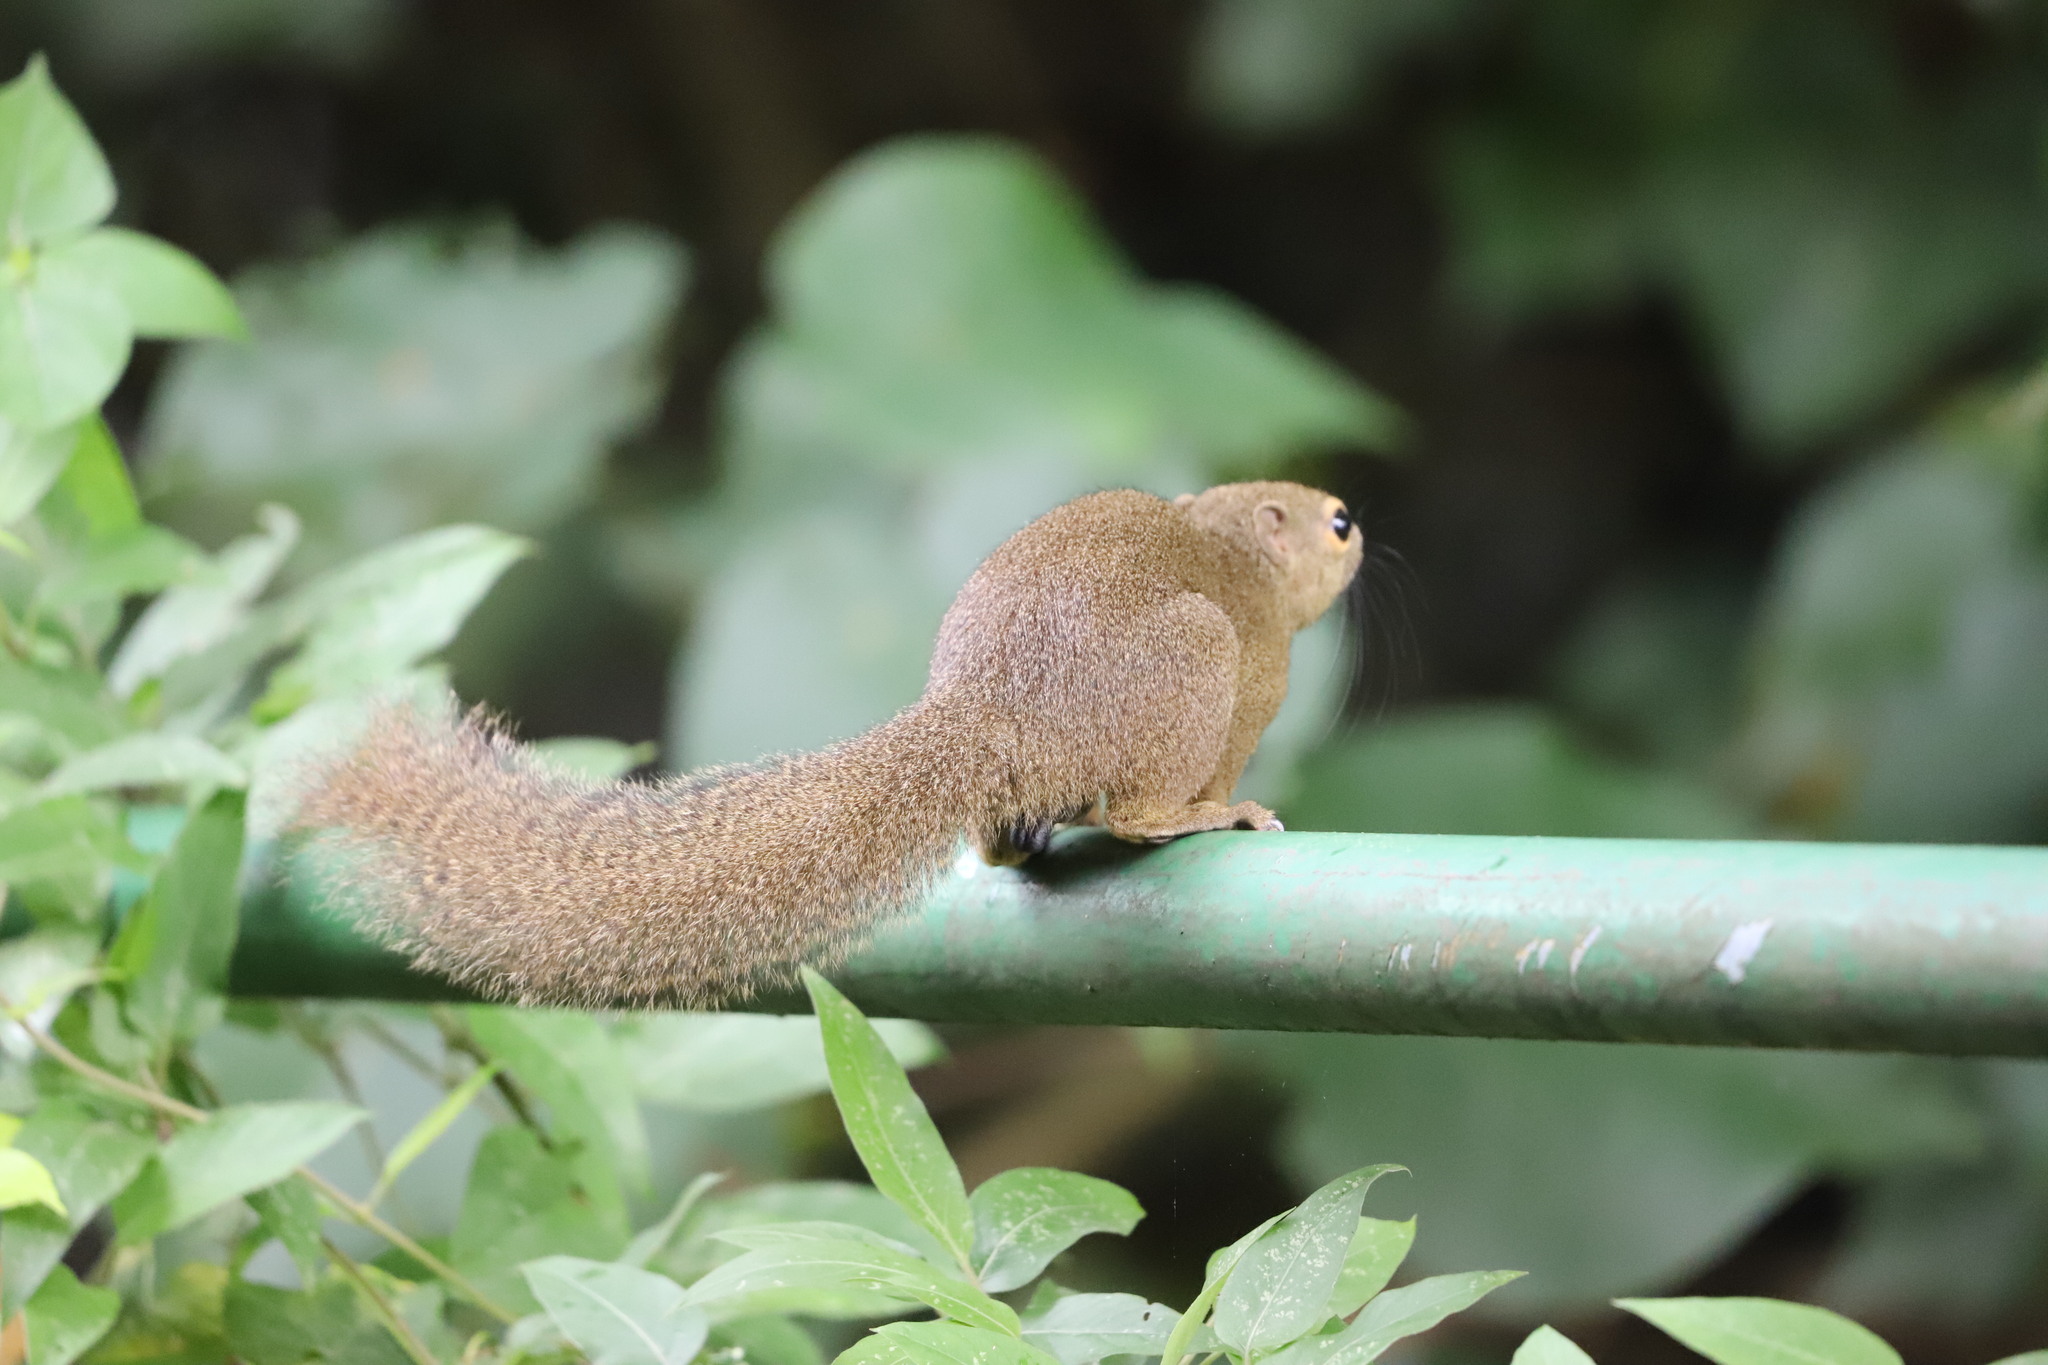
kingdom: Animalia
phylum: Chordata
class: Mammalia
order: Rodentia
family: Sciuridae
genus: Callosciurus
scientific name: Callosciurus notatus
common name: Plantain squirrel
